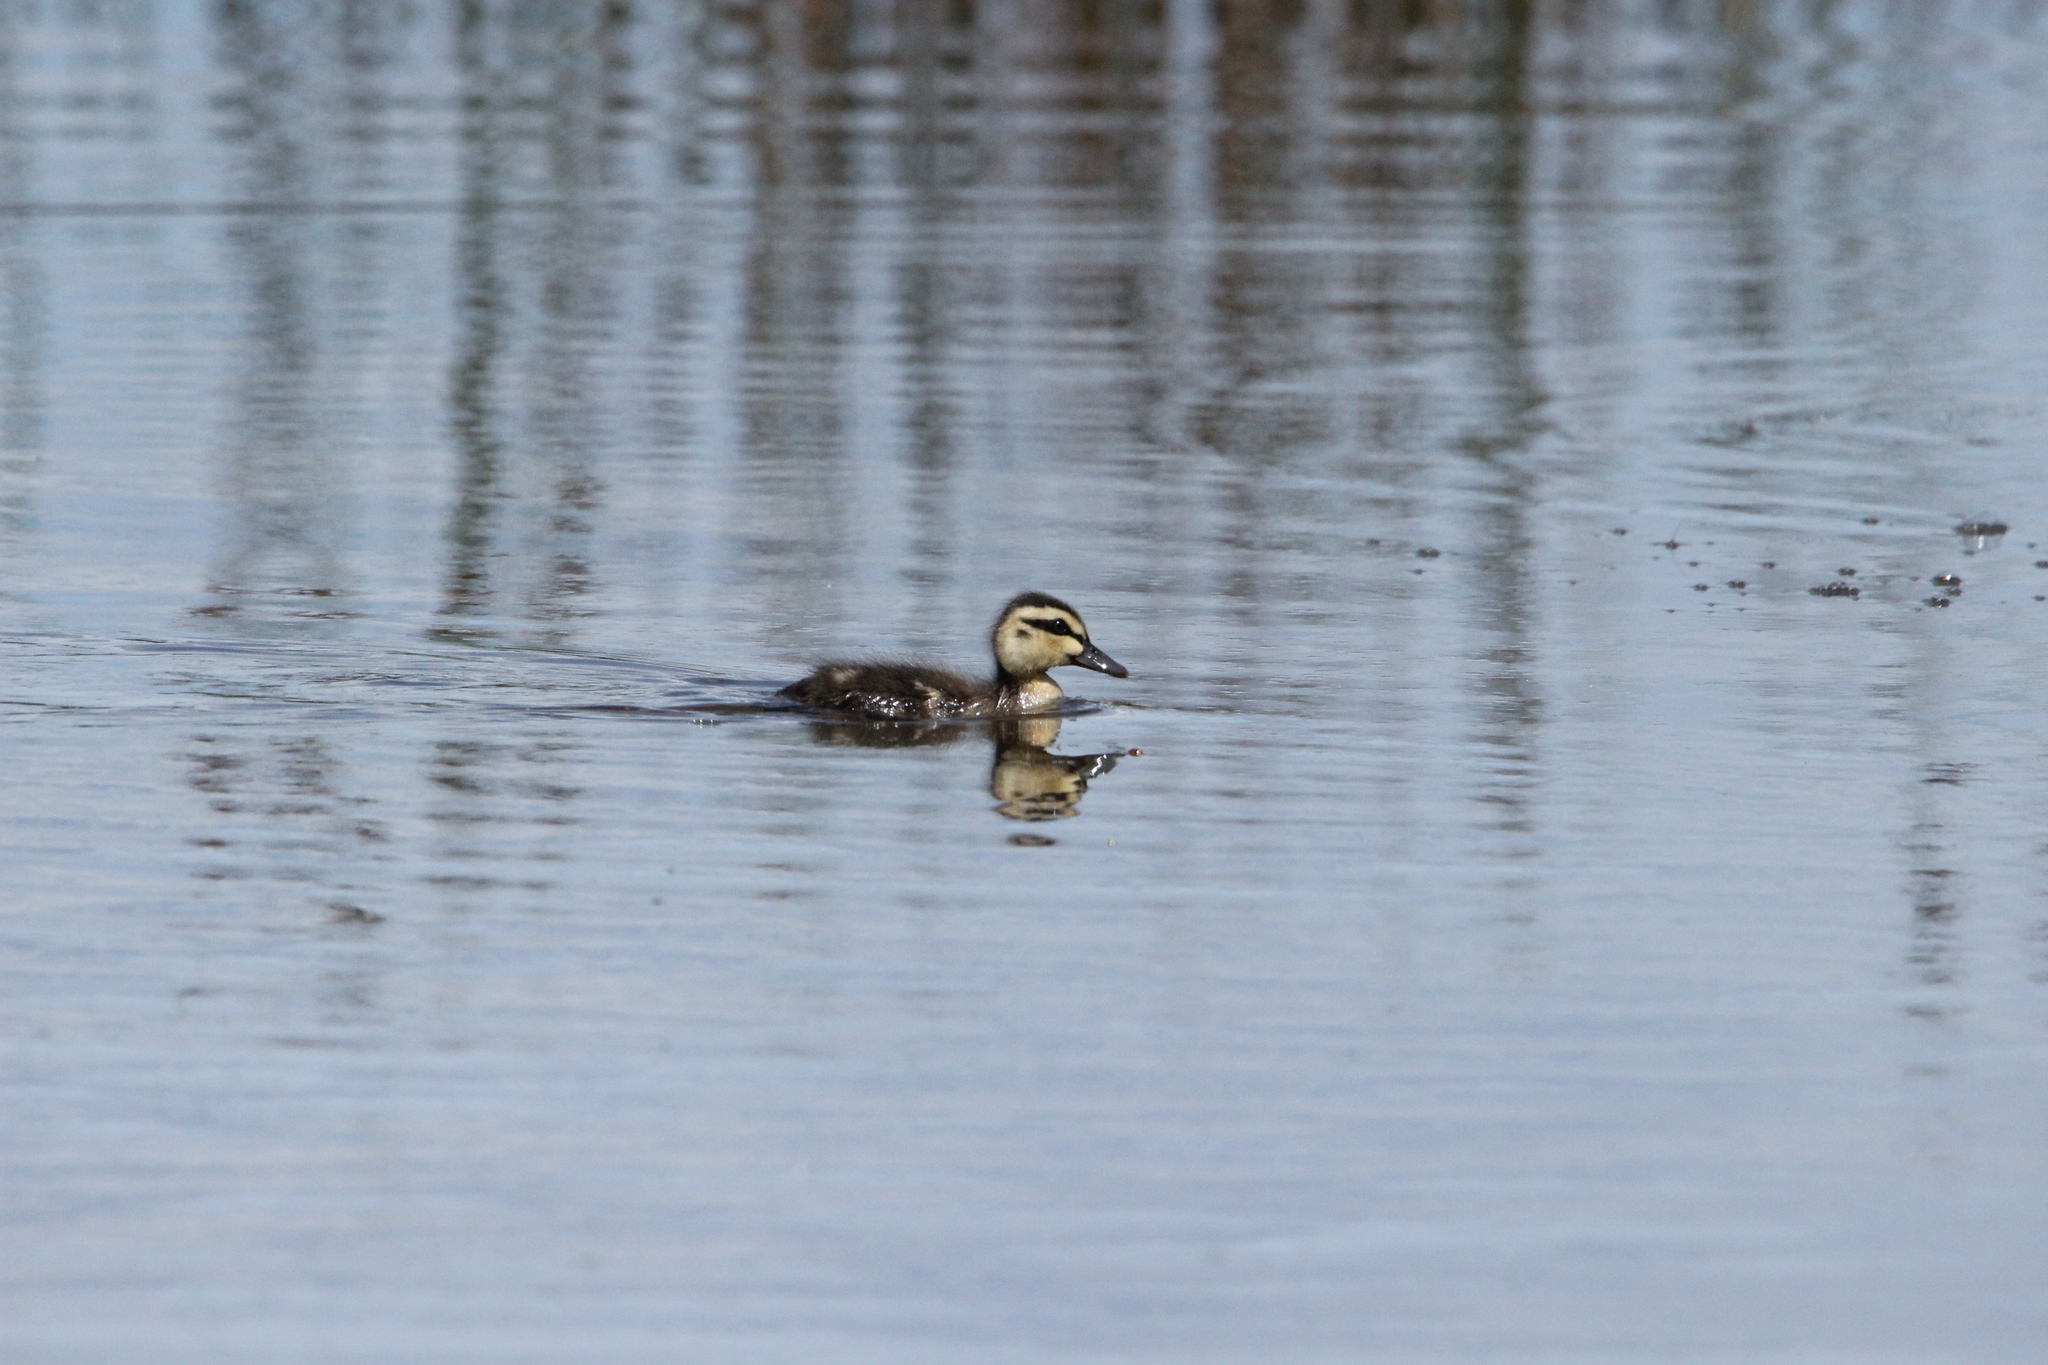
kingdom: Animalia
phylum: Chordata
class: Aves
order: Anseriformes
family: Anatidae
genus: Anas
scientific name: Anas superciliosa
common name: Pacific black duck
